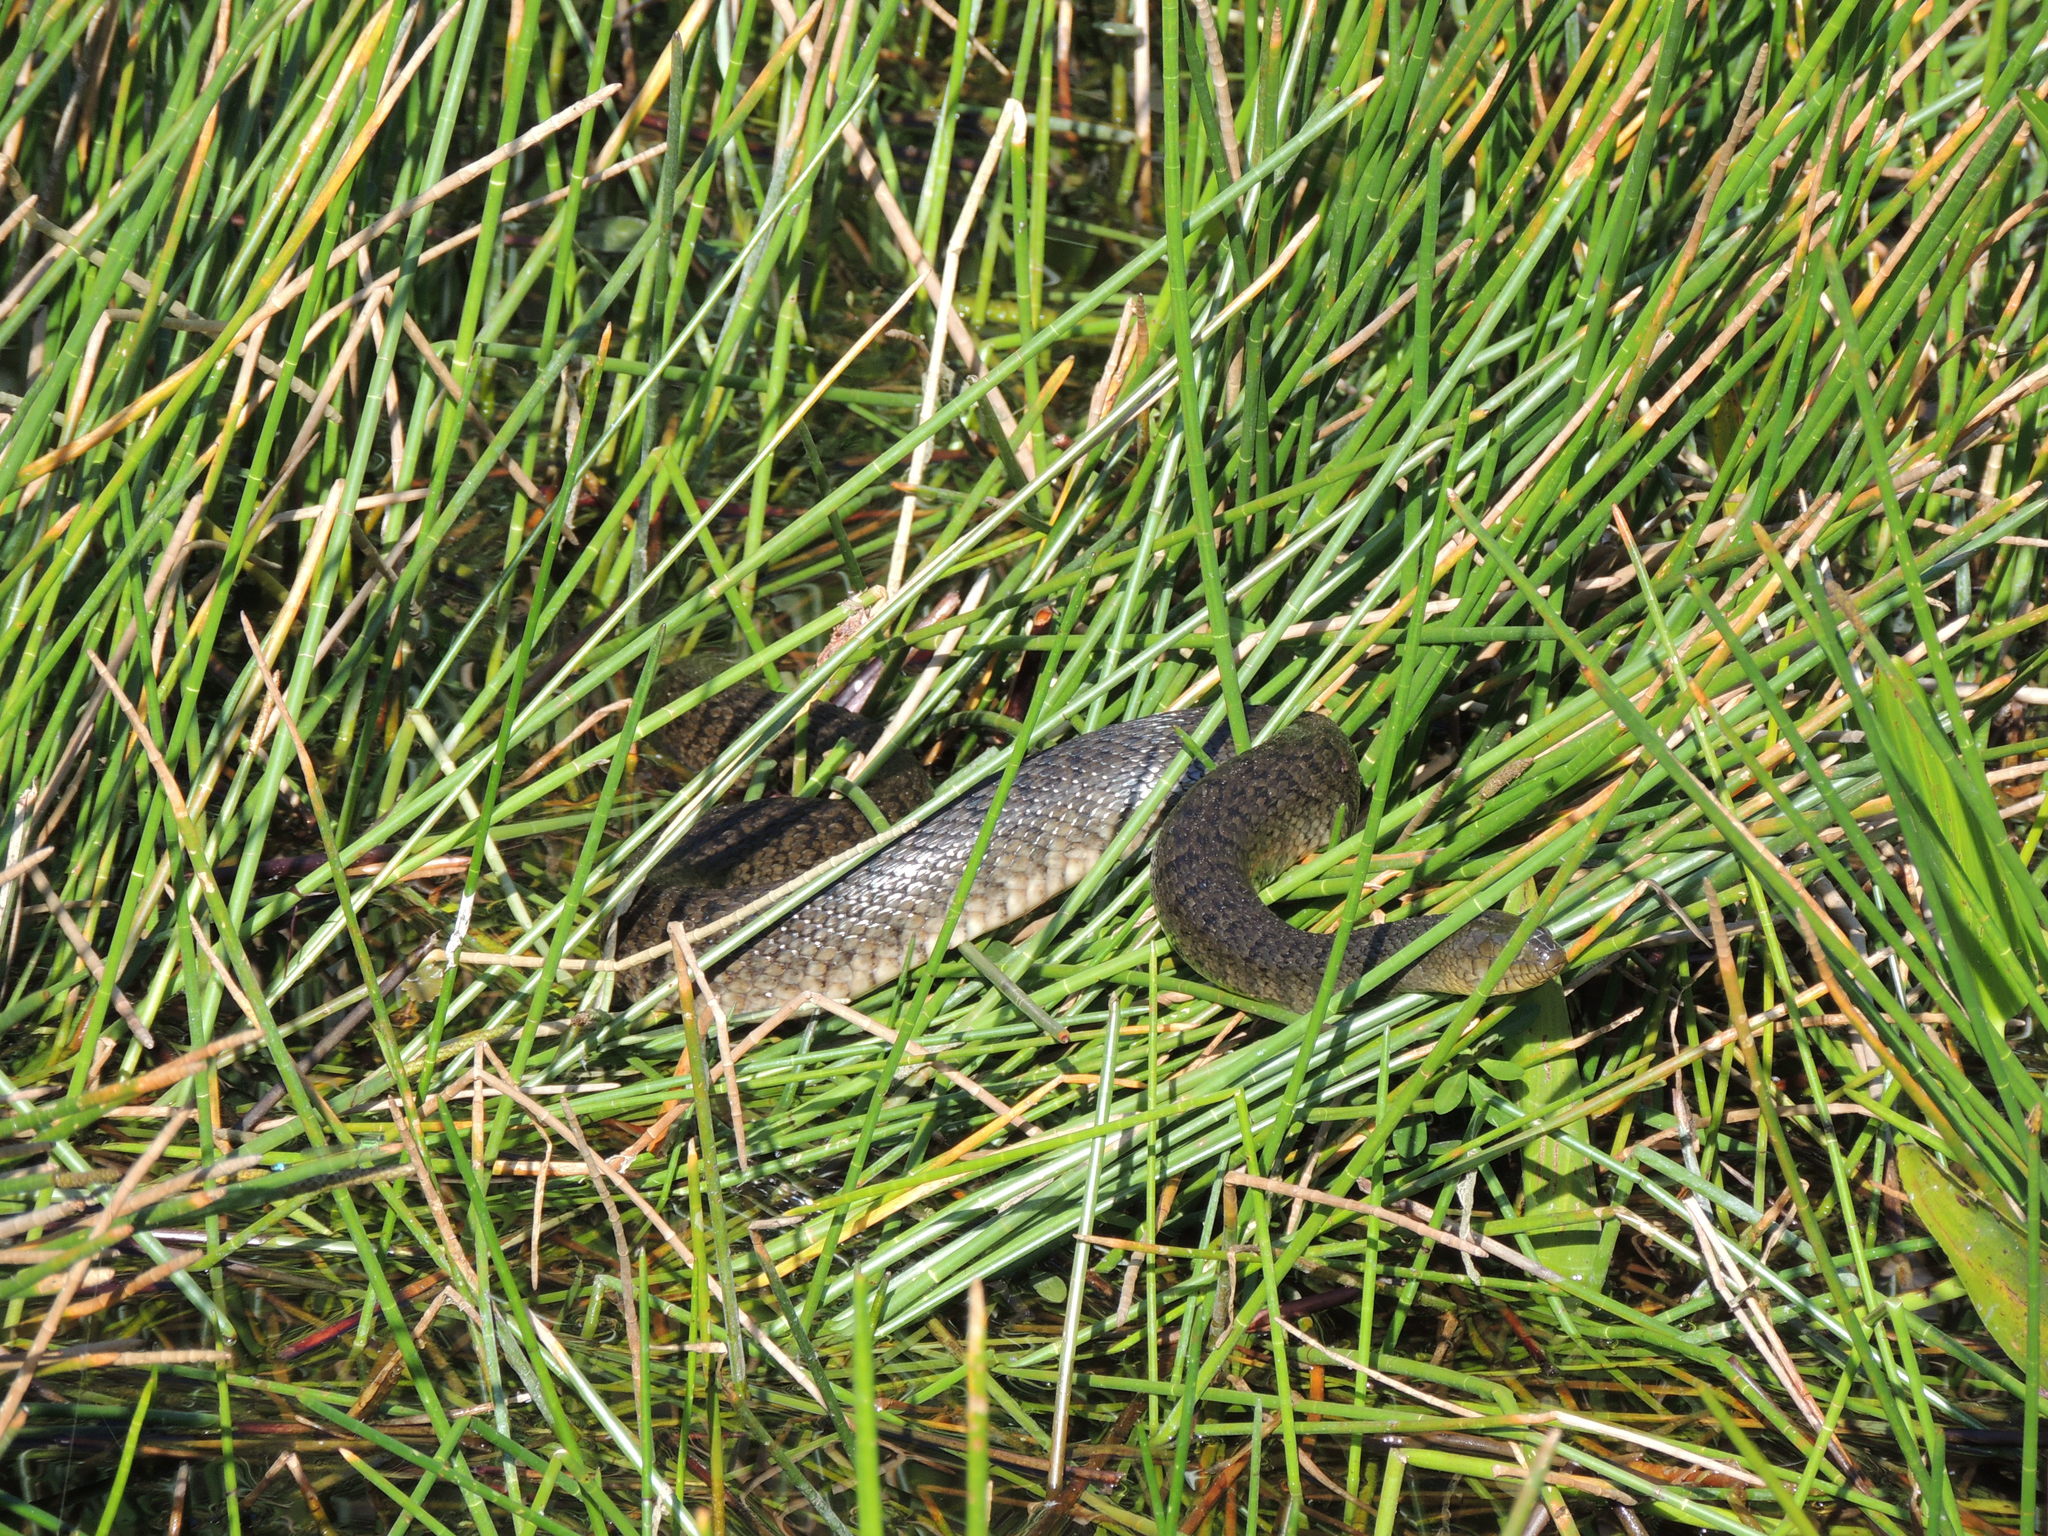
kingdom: Animalia
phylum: Chordata
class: Squamata
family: Colubridae
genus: Nerodia
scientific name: Nerodia floridana
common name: Florida green watersnake
